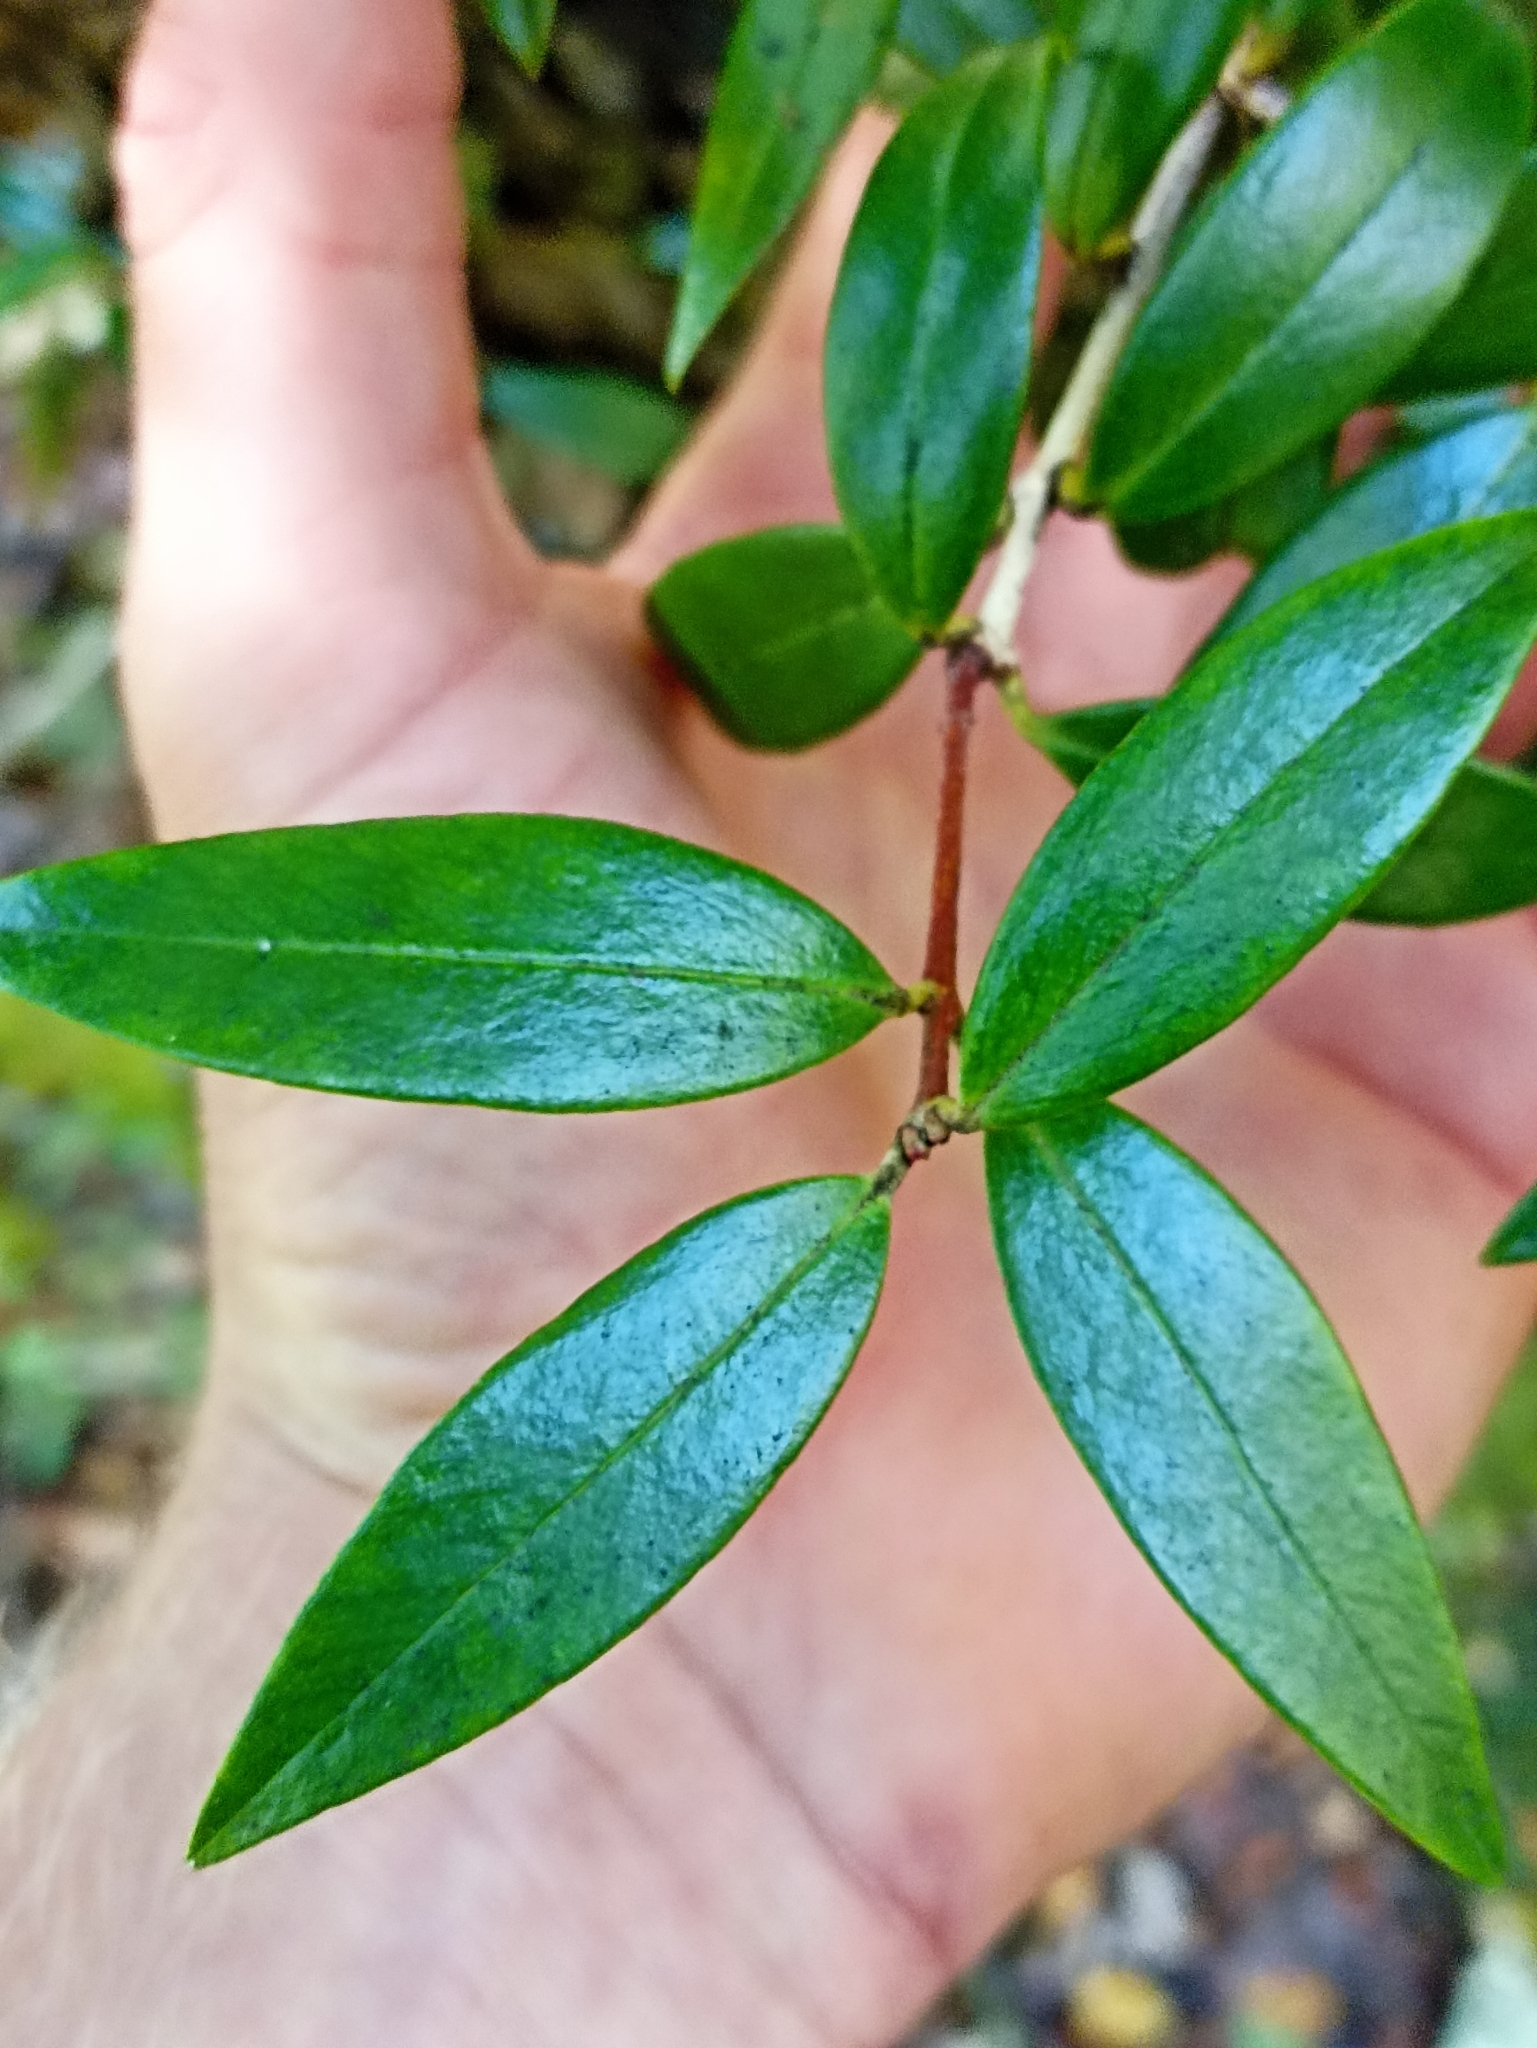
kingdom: Plantae
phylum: Tracheophyta
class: Magnoliopsida
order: Myrtales
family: Myrtaceae
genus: Metrosideros
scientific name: Metrosideros umbellata
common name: Southern rata
